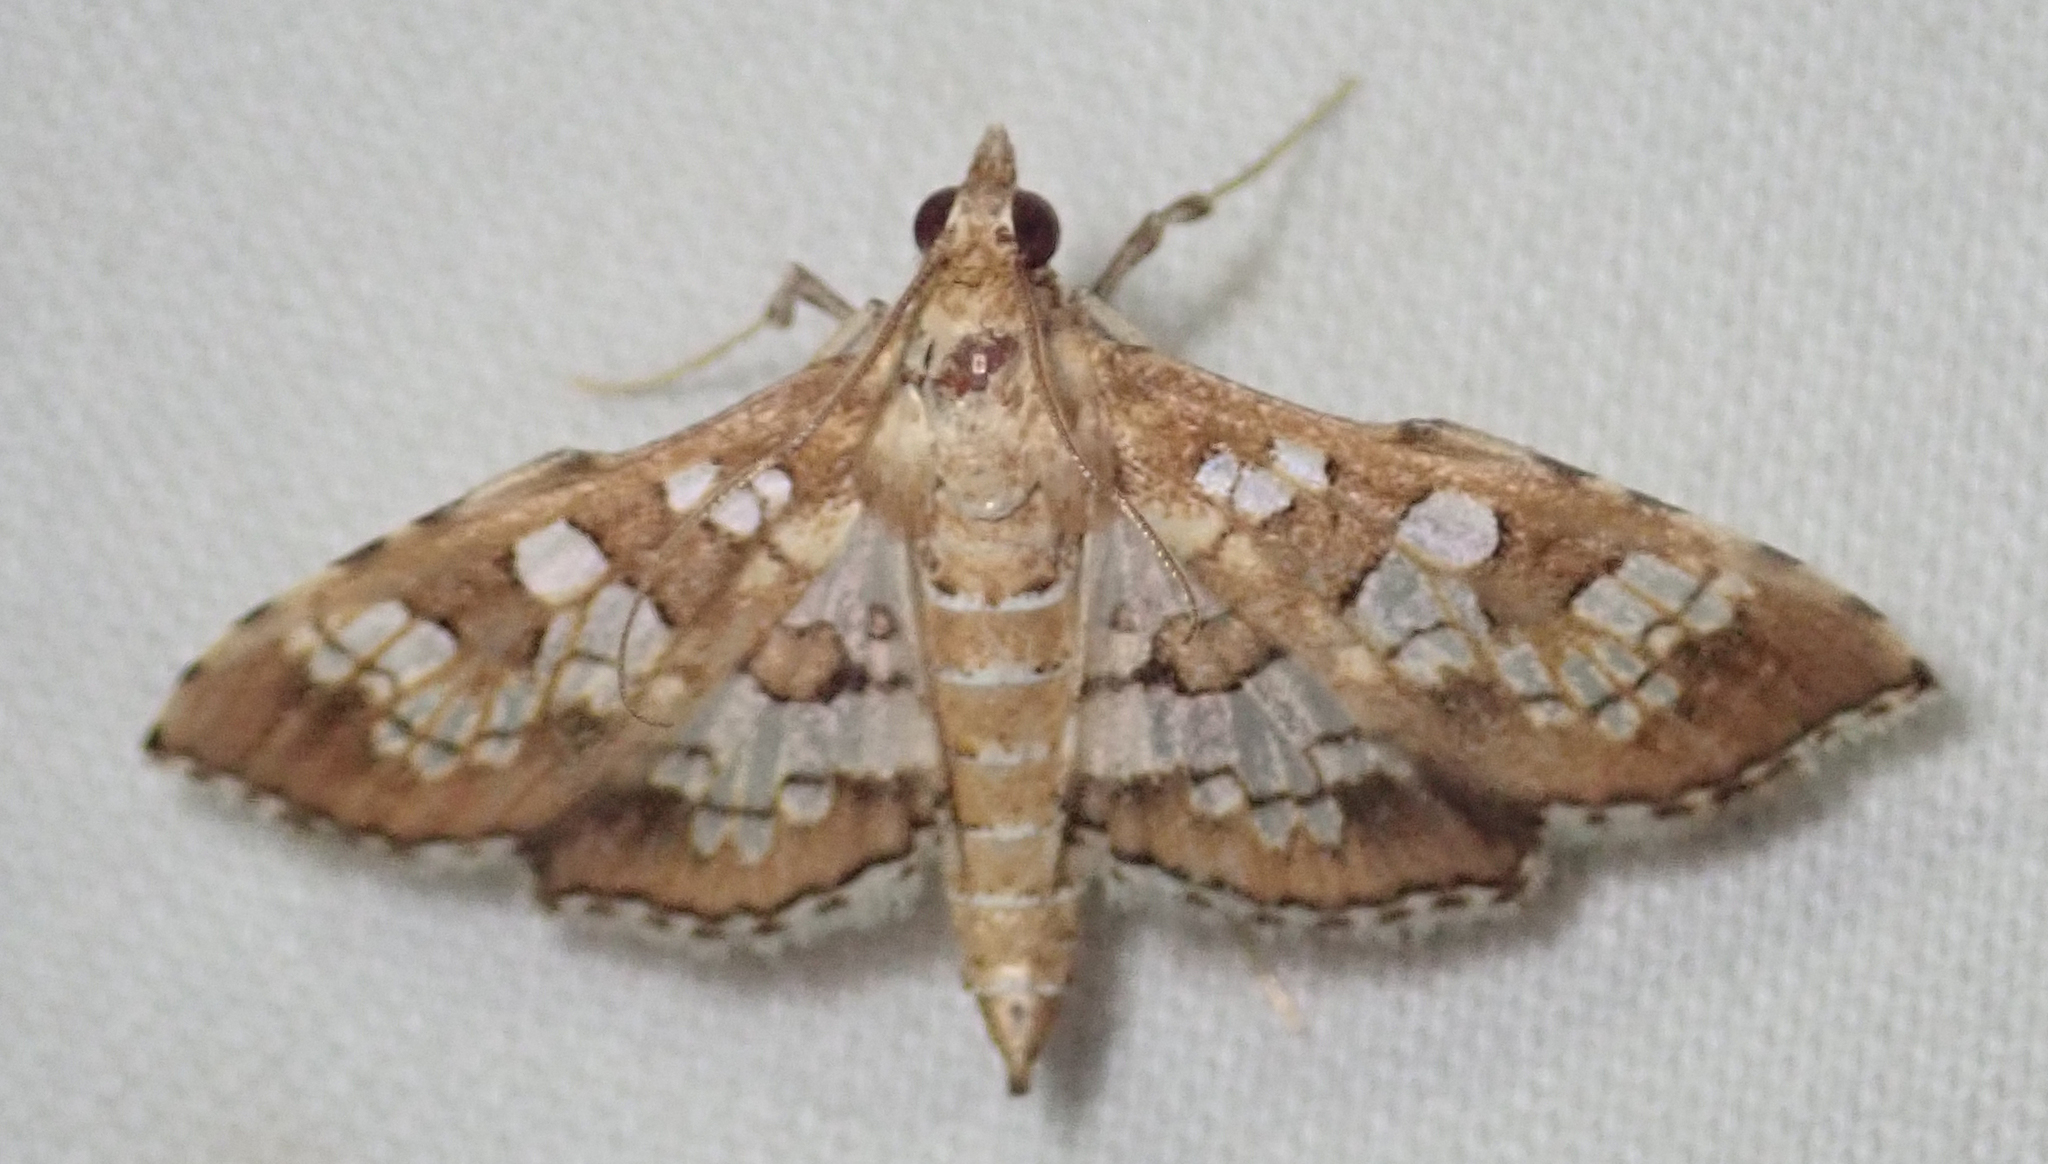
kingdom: Animalia
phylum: Arthropoda
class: Insecta
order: Lepidoptera
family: Crambidae
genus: Sameodes
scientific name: Sameodes cancellalis
